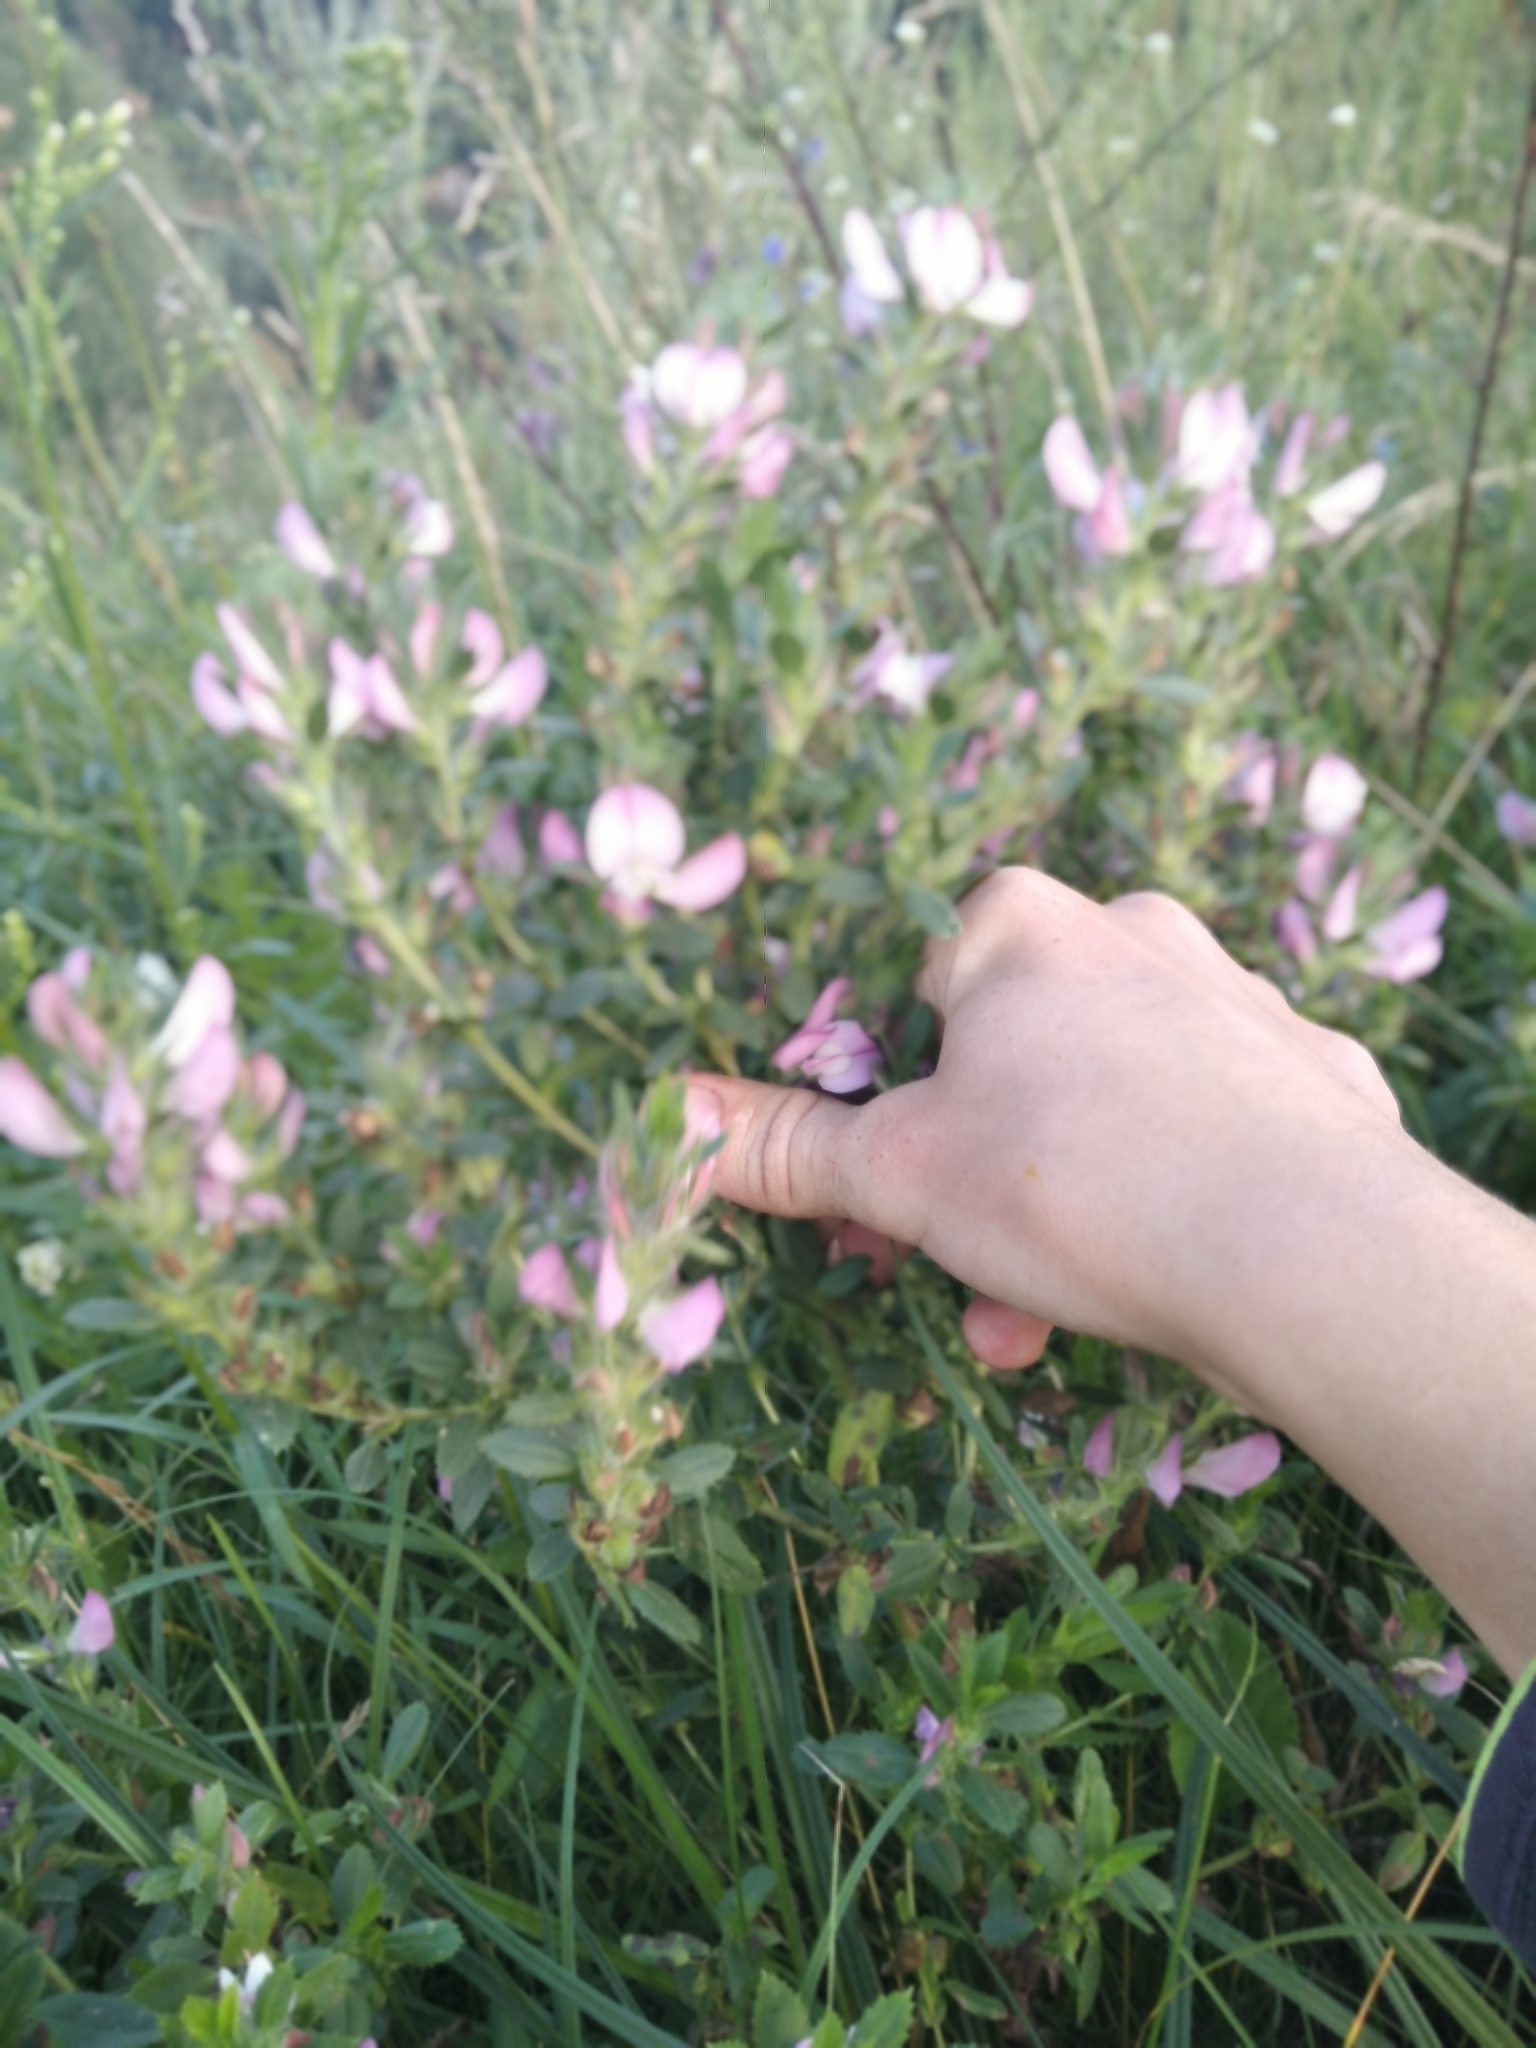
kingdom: Plantae
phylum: Tracheophyta
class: Magnoliopsida
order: Fabales
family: Fabaceae
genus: Ononis
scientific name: Ononis arvensis
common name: Field restharrow
